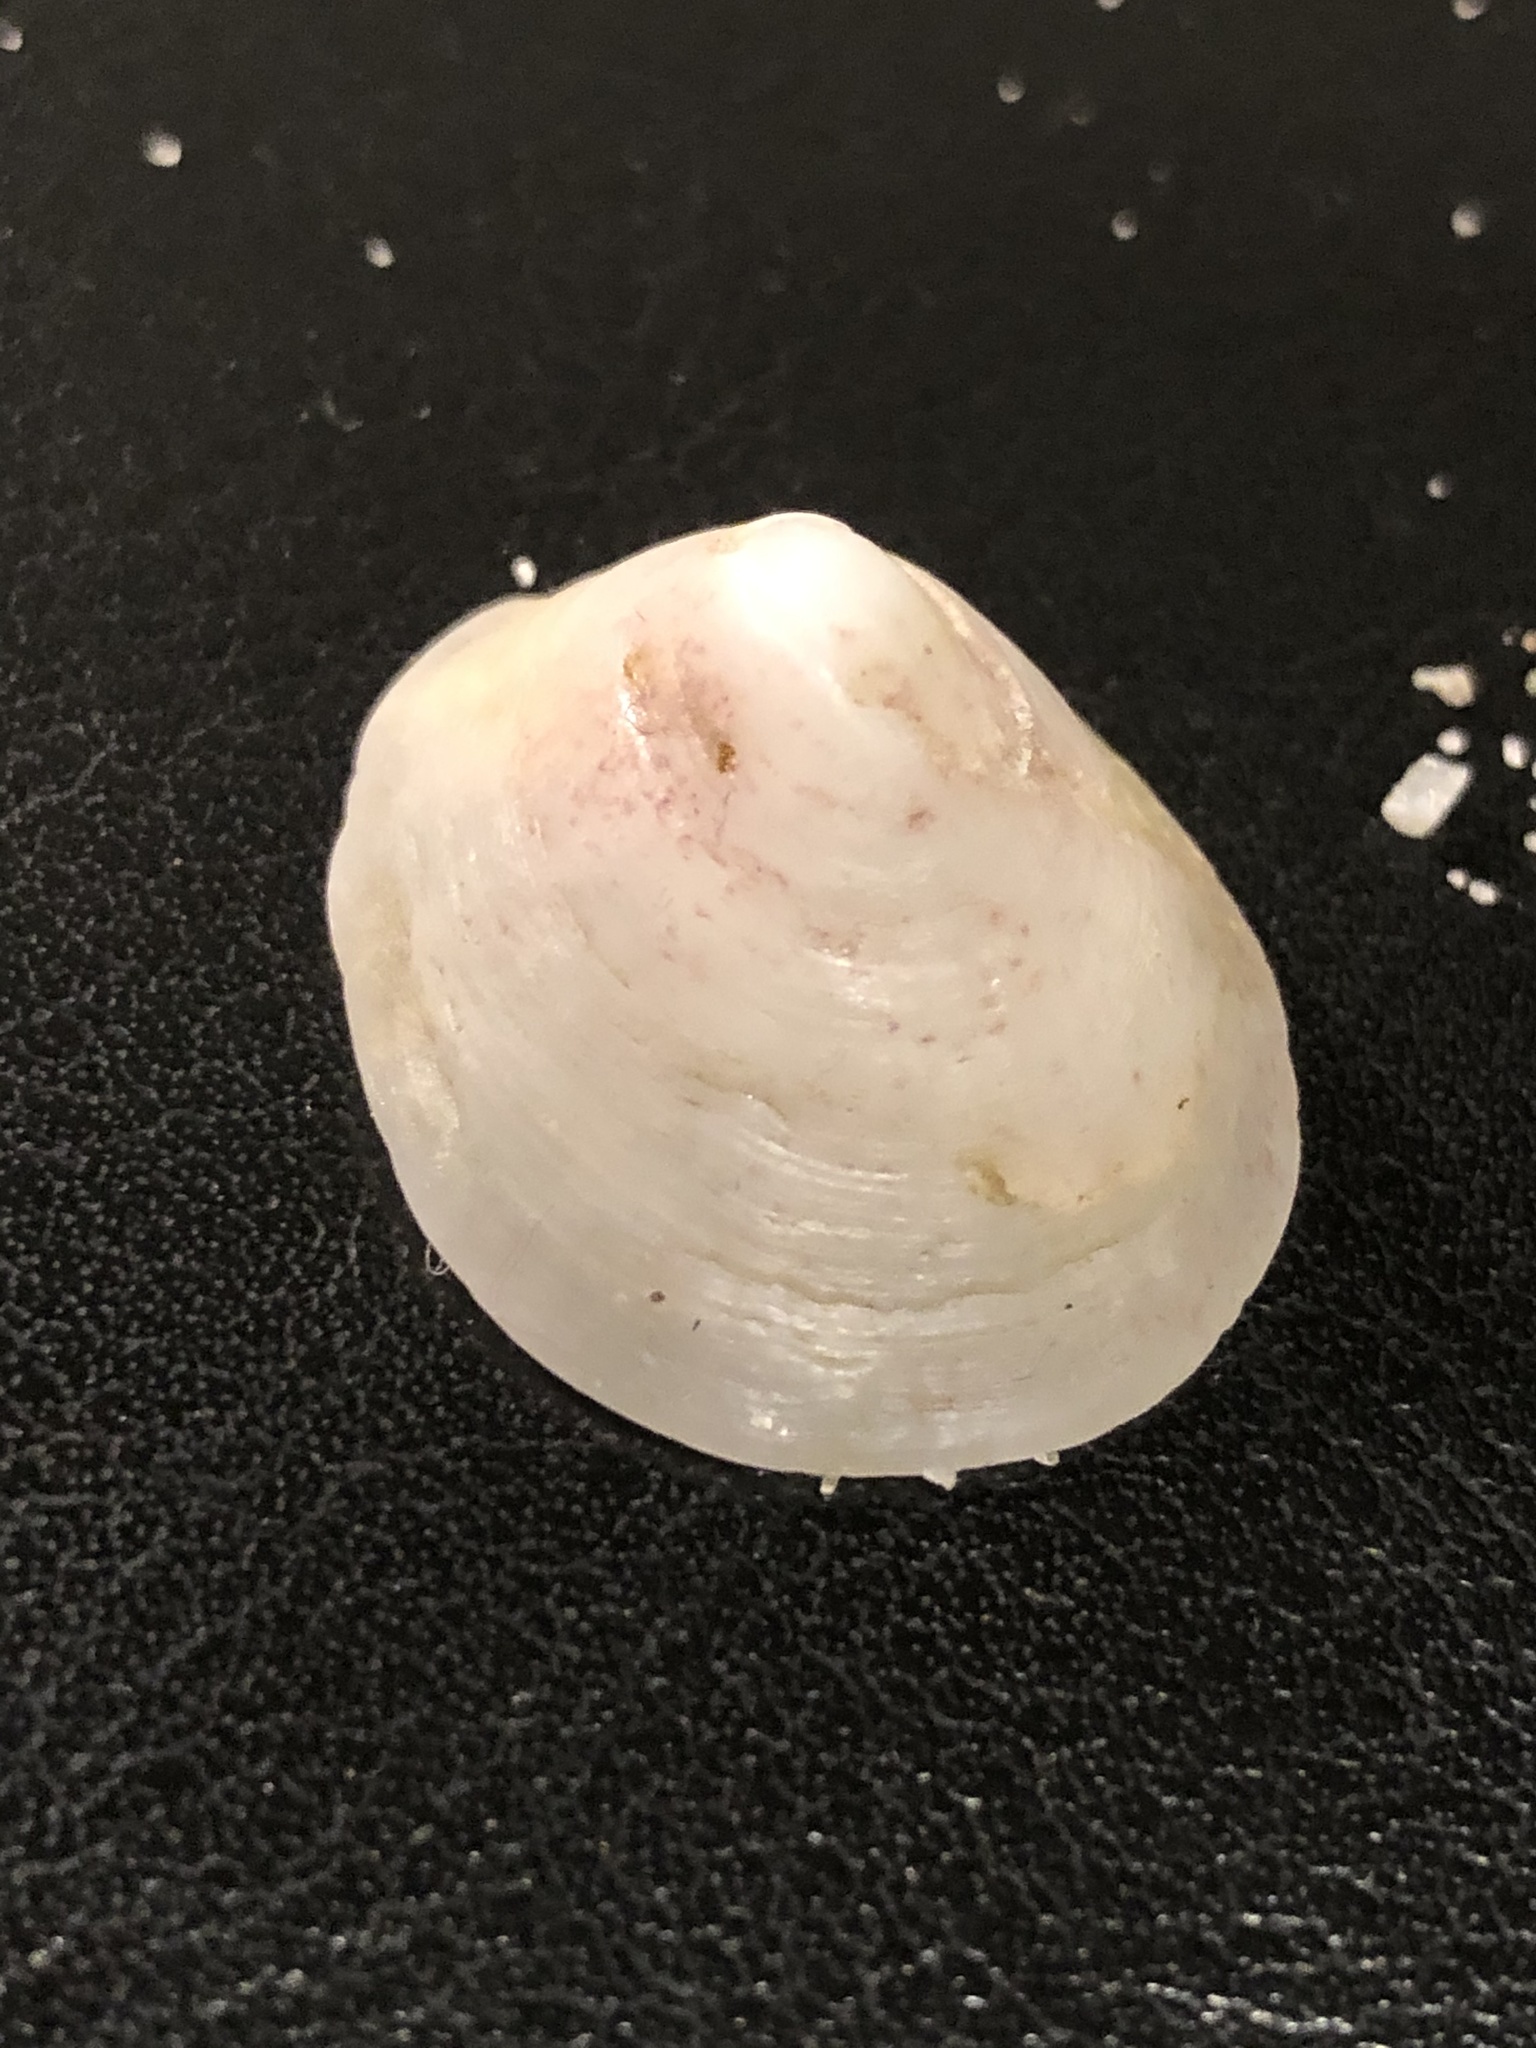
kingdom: Animalia
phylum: Mollusca
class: Gastropoda
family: Acmaeidae
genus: Acmaea
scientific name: Acmaea mitra
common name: Pacific white cap limpet
